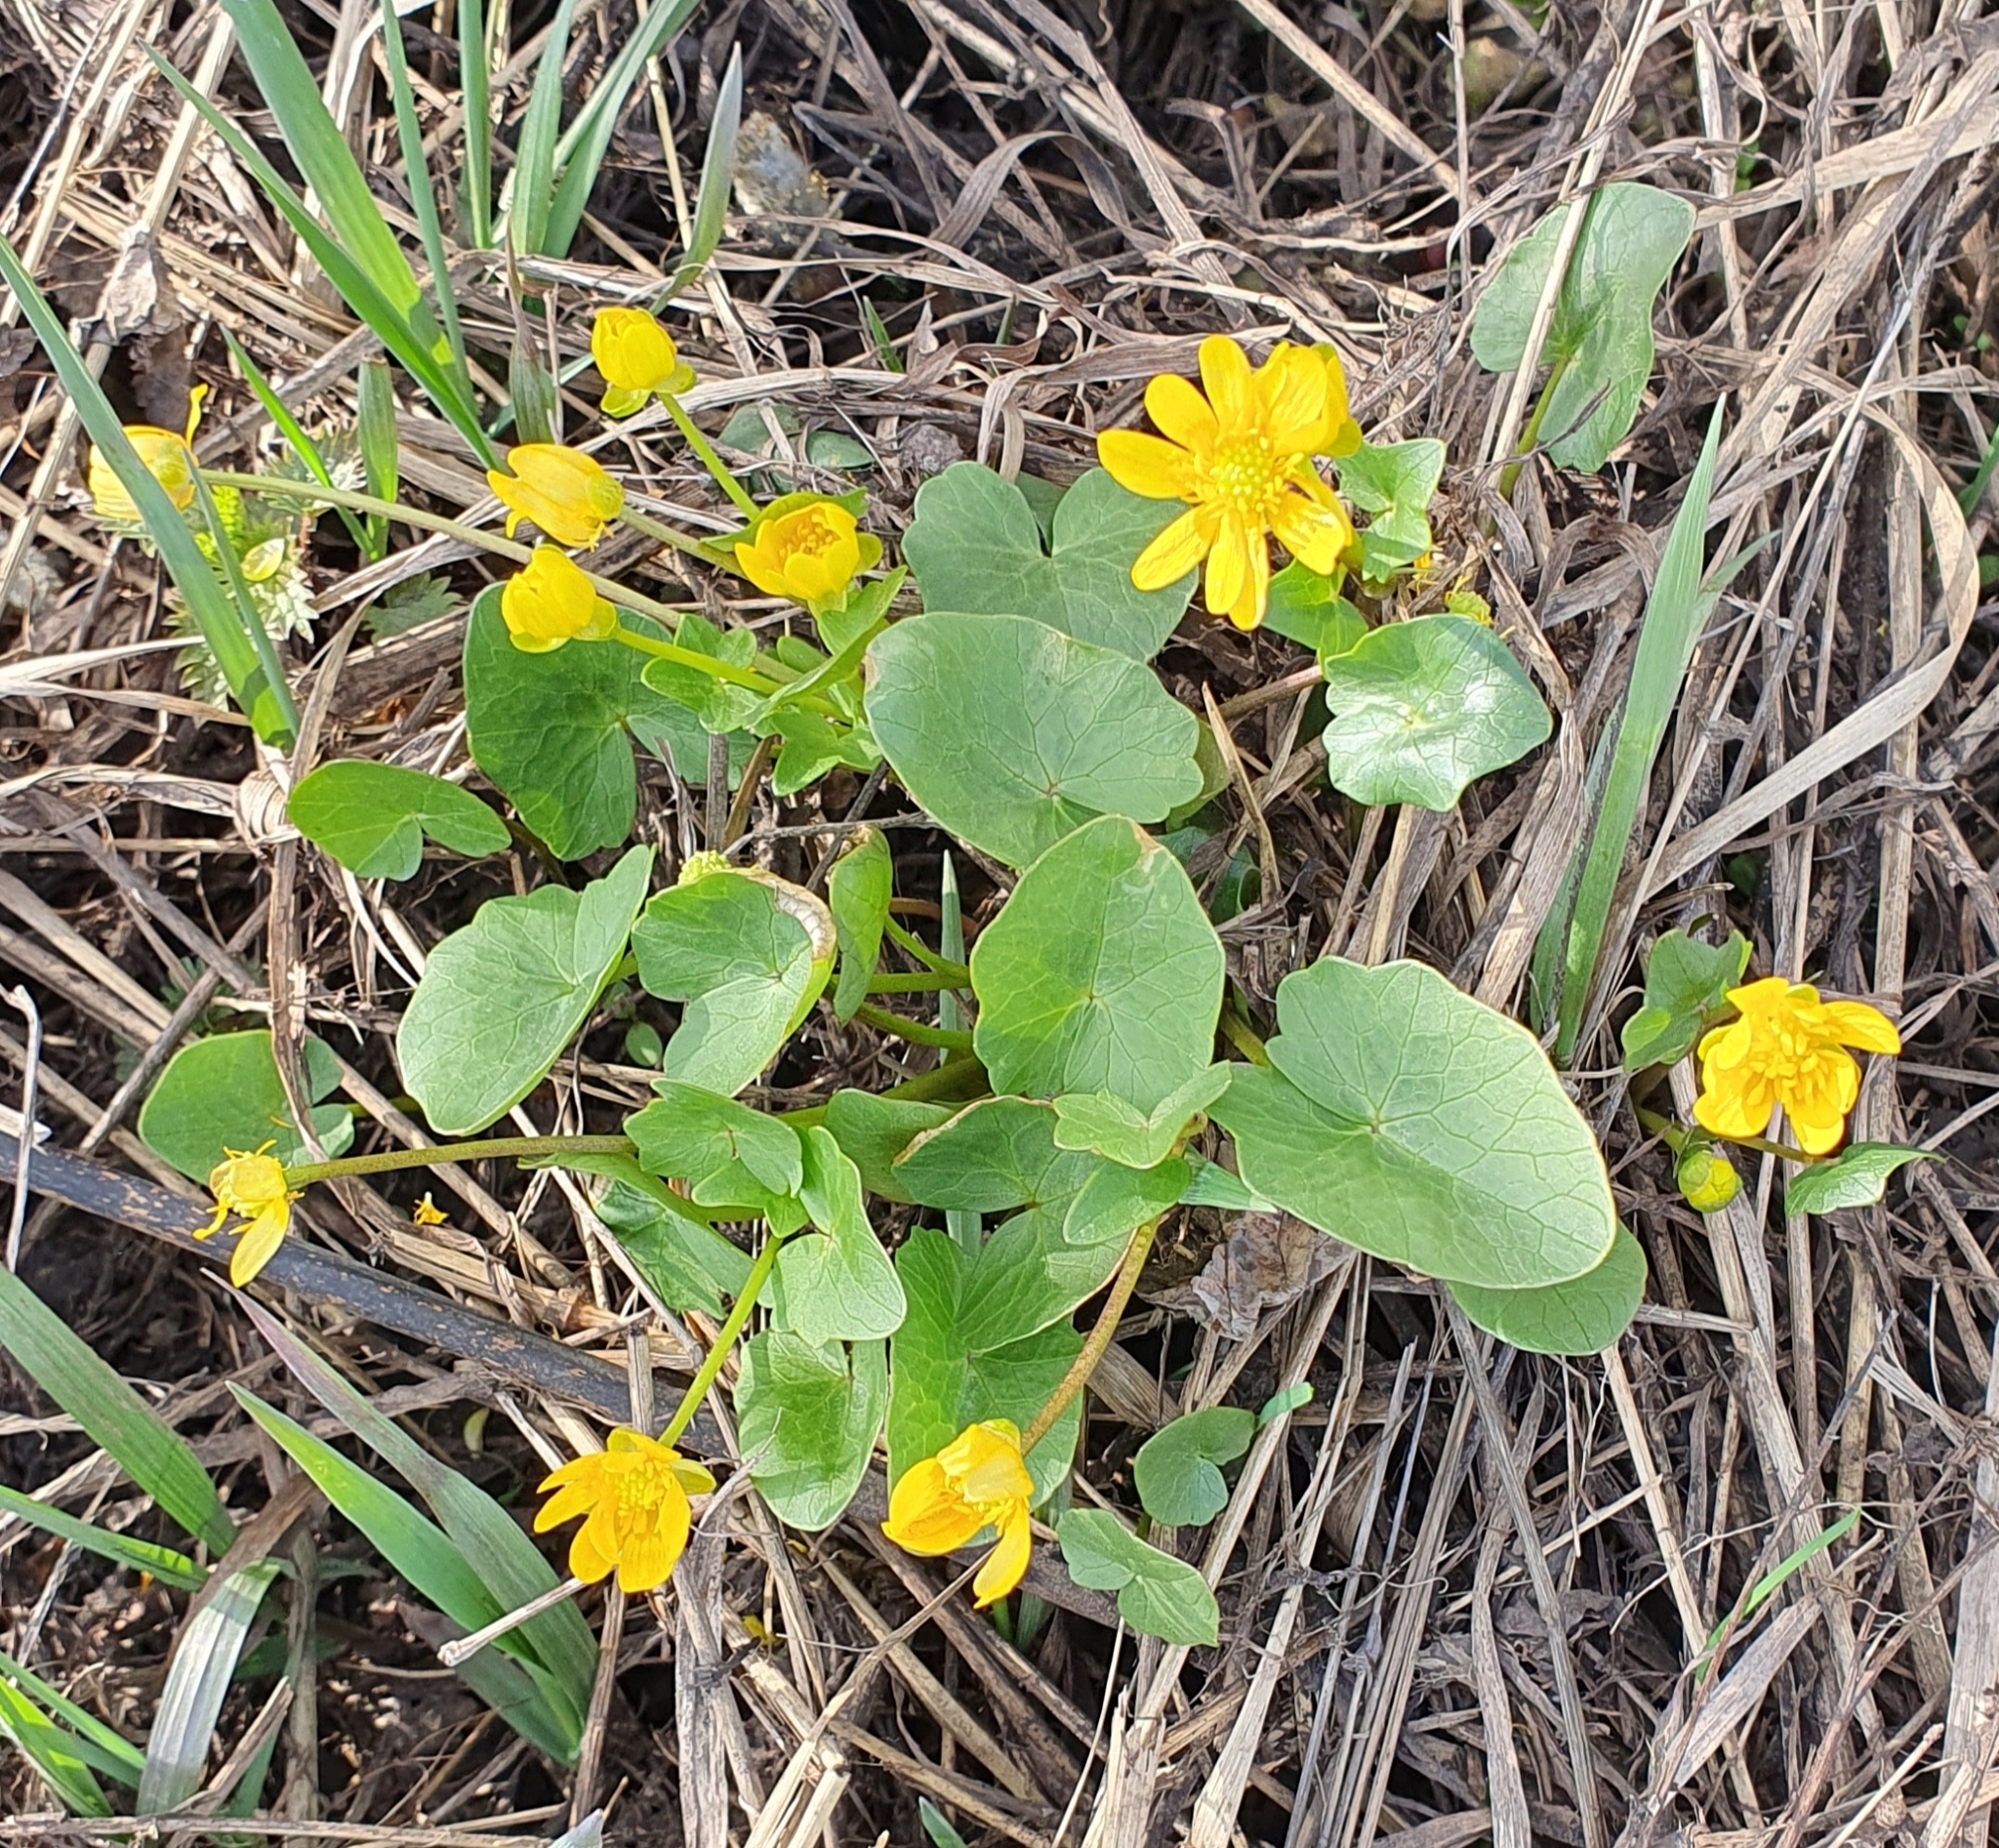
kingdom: Plantae
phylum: Tracheophyta
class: Magnoliopsida
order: Ranunculales
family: Ranunculaceae
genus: Ficaria
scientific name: Ficaria verna
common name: Lesser celandine
